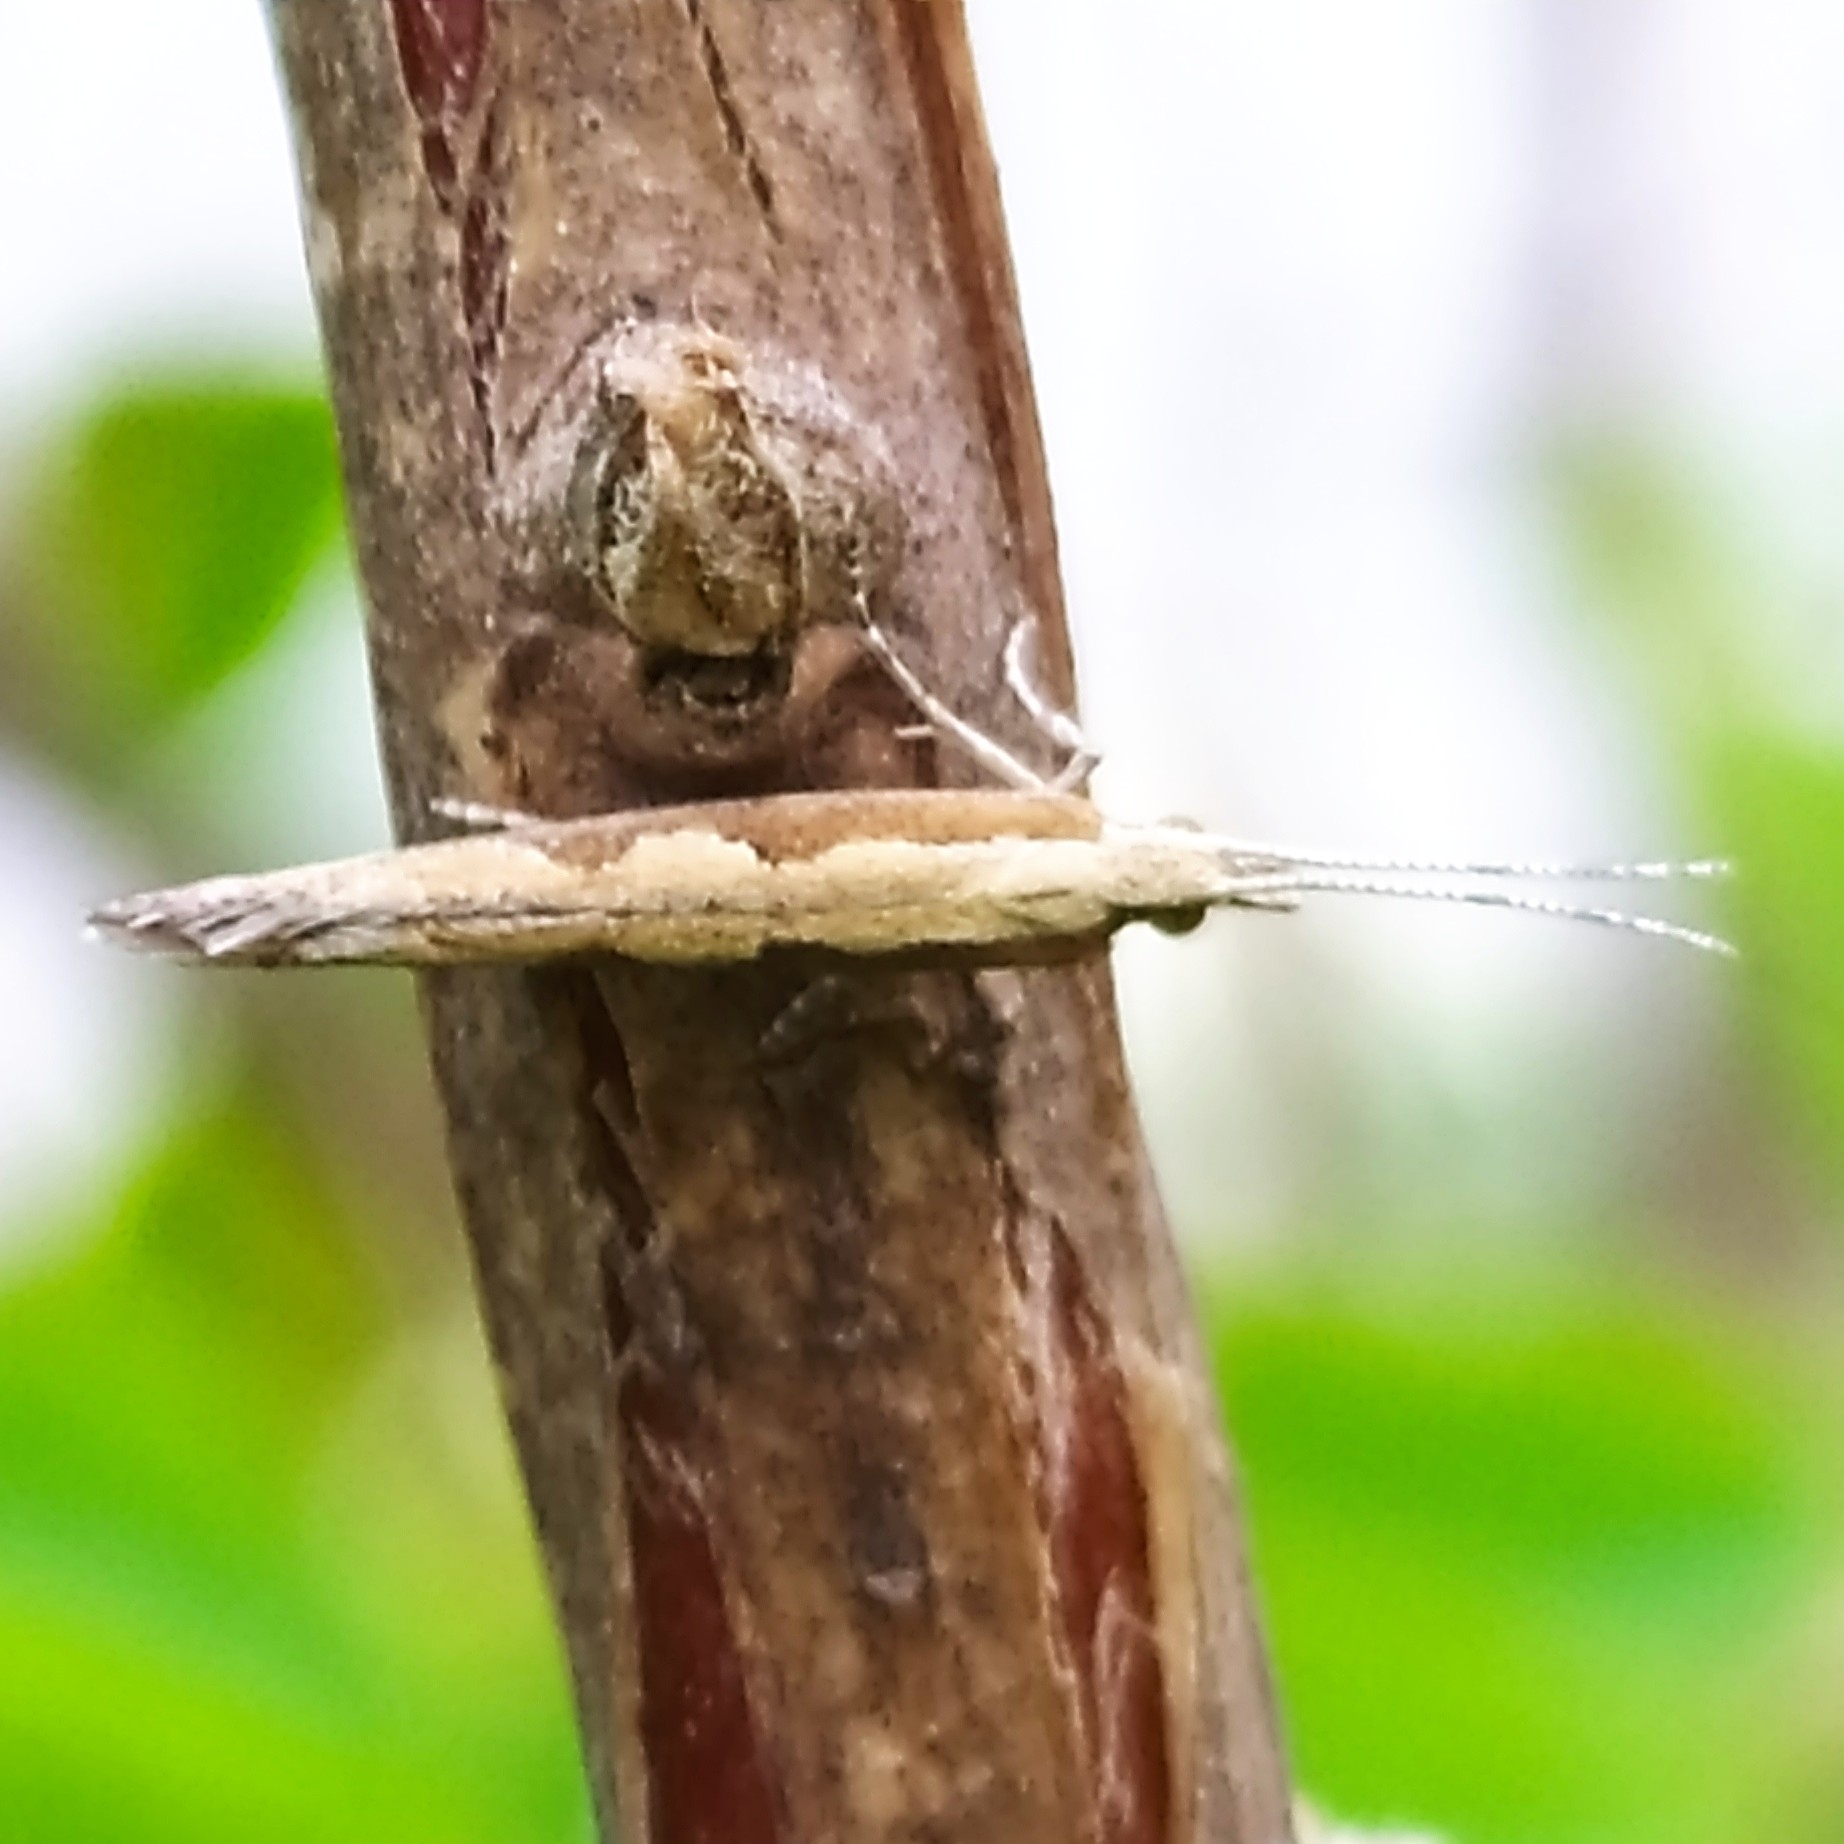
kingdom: Animalia
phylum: Arthropoda
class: Insecta
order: Lepidoptera
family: Plutellidae
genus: Plutella
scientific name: Plutella xylostella
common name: Diamond-back moth
